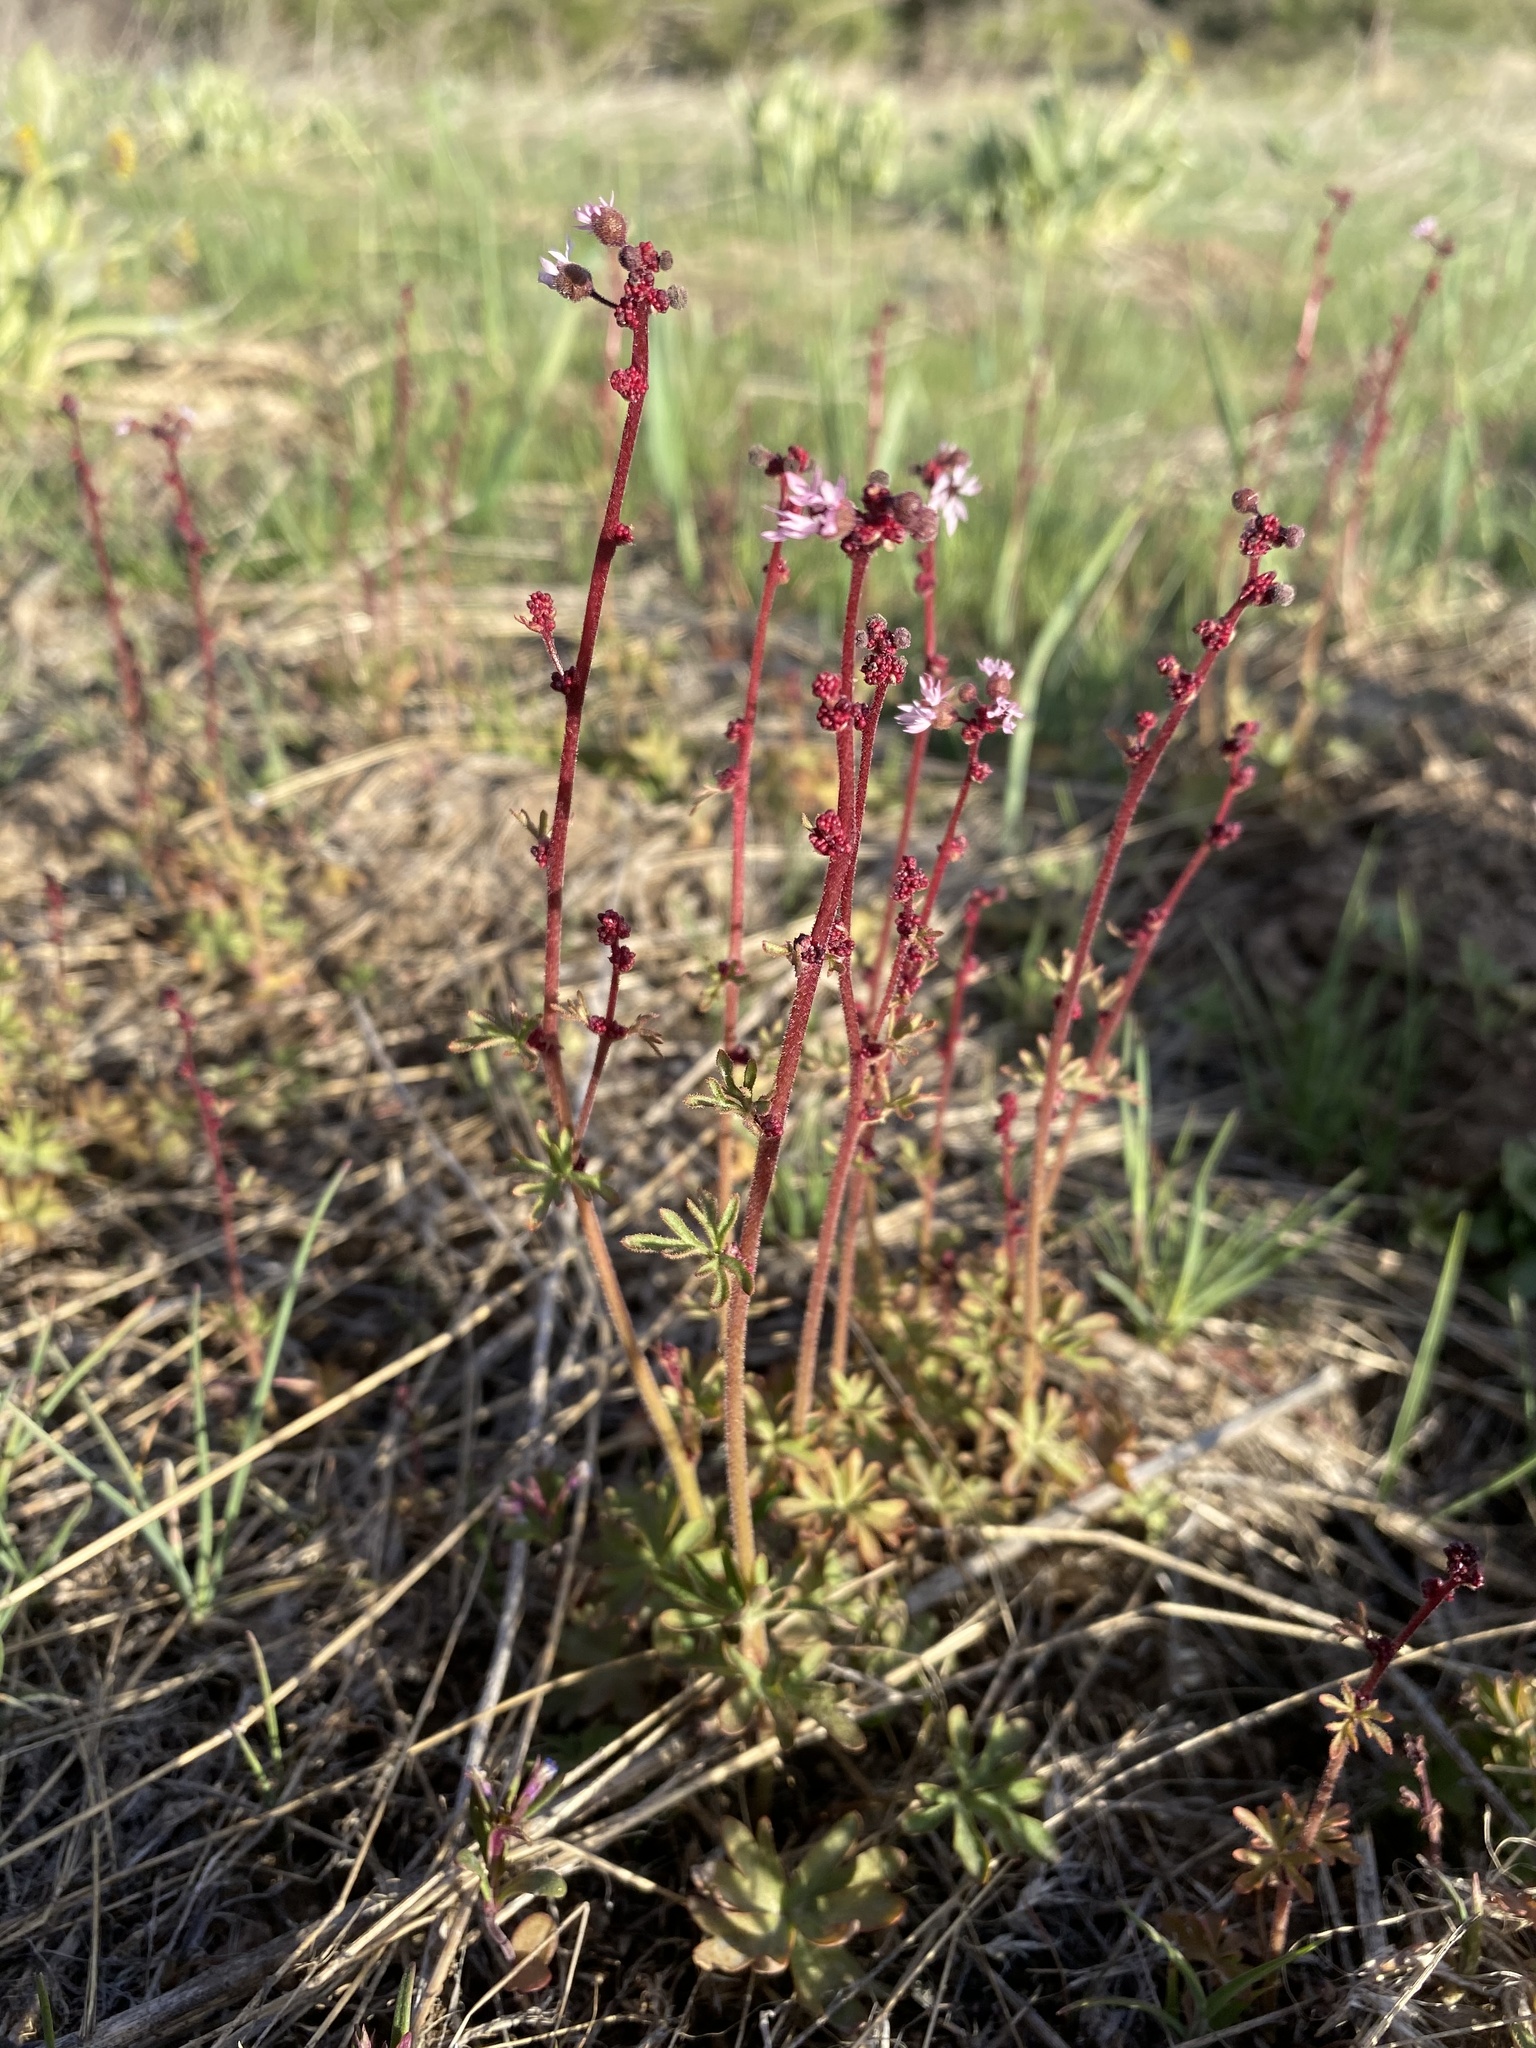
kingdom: Plantae
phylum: Tracheophyta
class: Magnoliopsida
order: Saxifragales
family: Saxifragaceae
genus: Lithophragma
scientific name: Lithophragma glabrum
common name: Bulbous prairie-star
